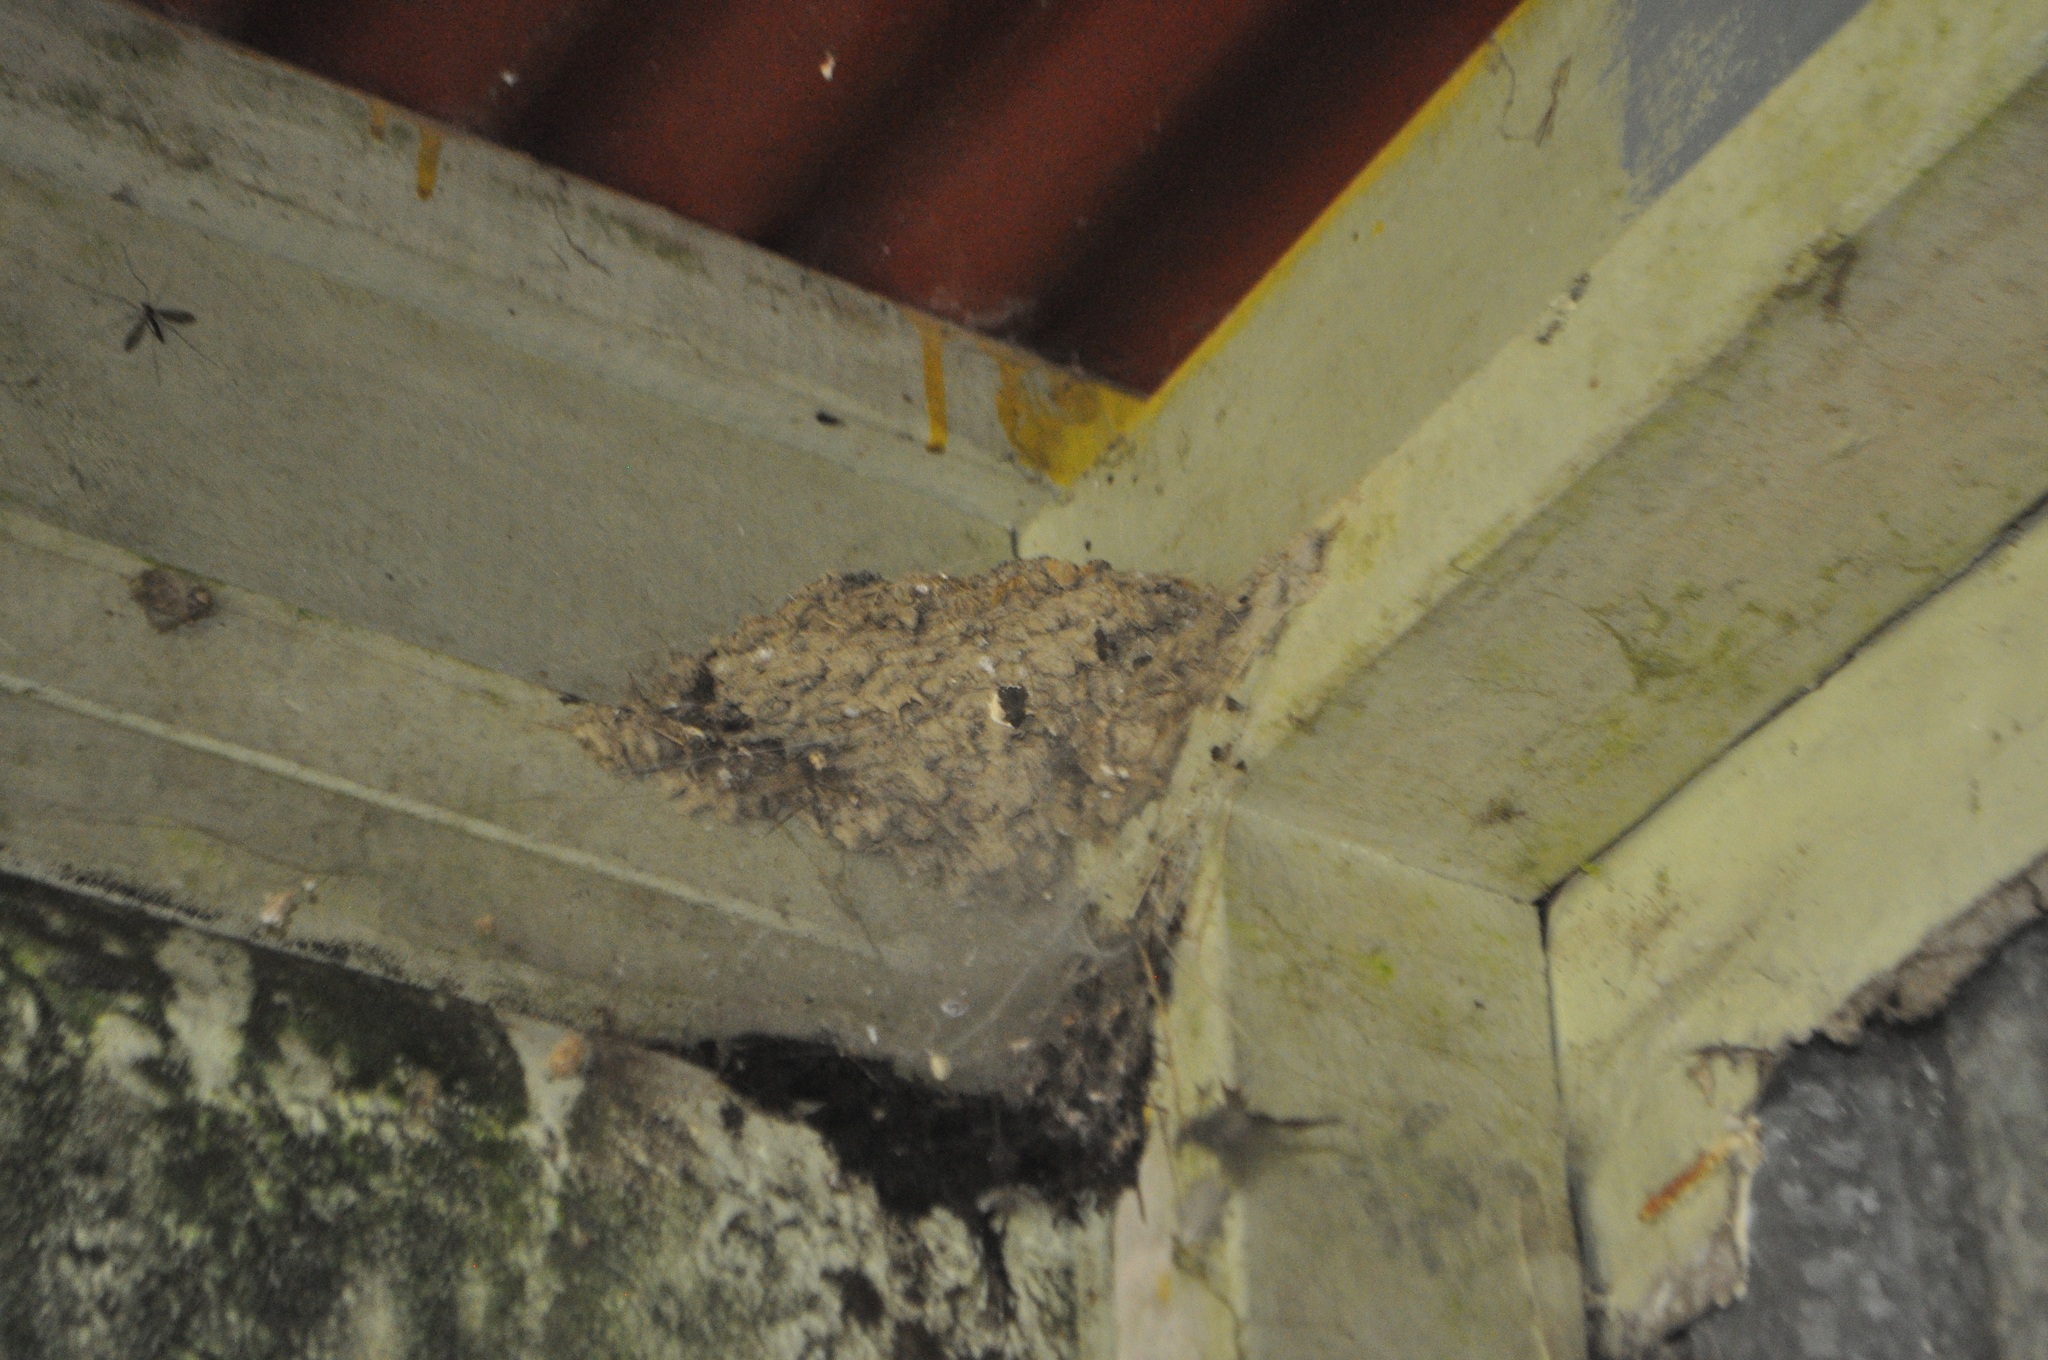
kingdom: Animalia
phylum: Chordata
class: Aves
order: Passeriformes
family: Hirundinidae
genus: Hirundo
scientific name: Hirundo neoxena
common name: Welcome swallow
